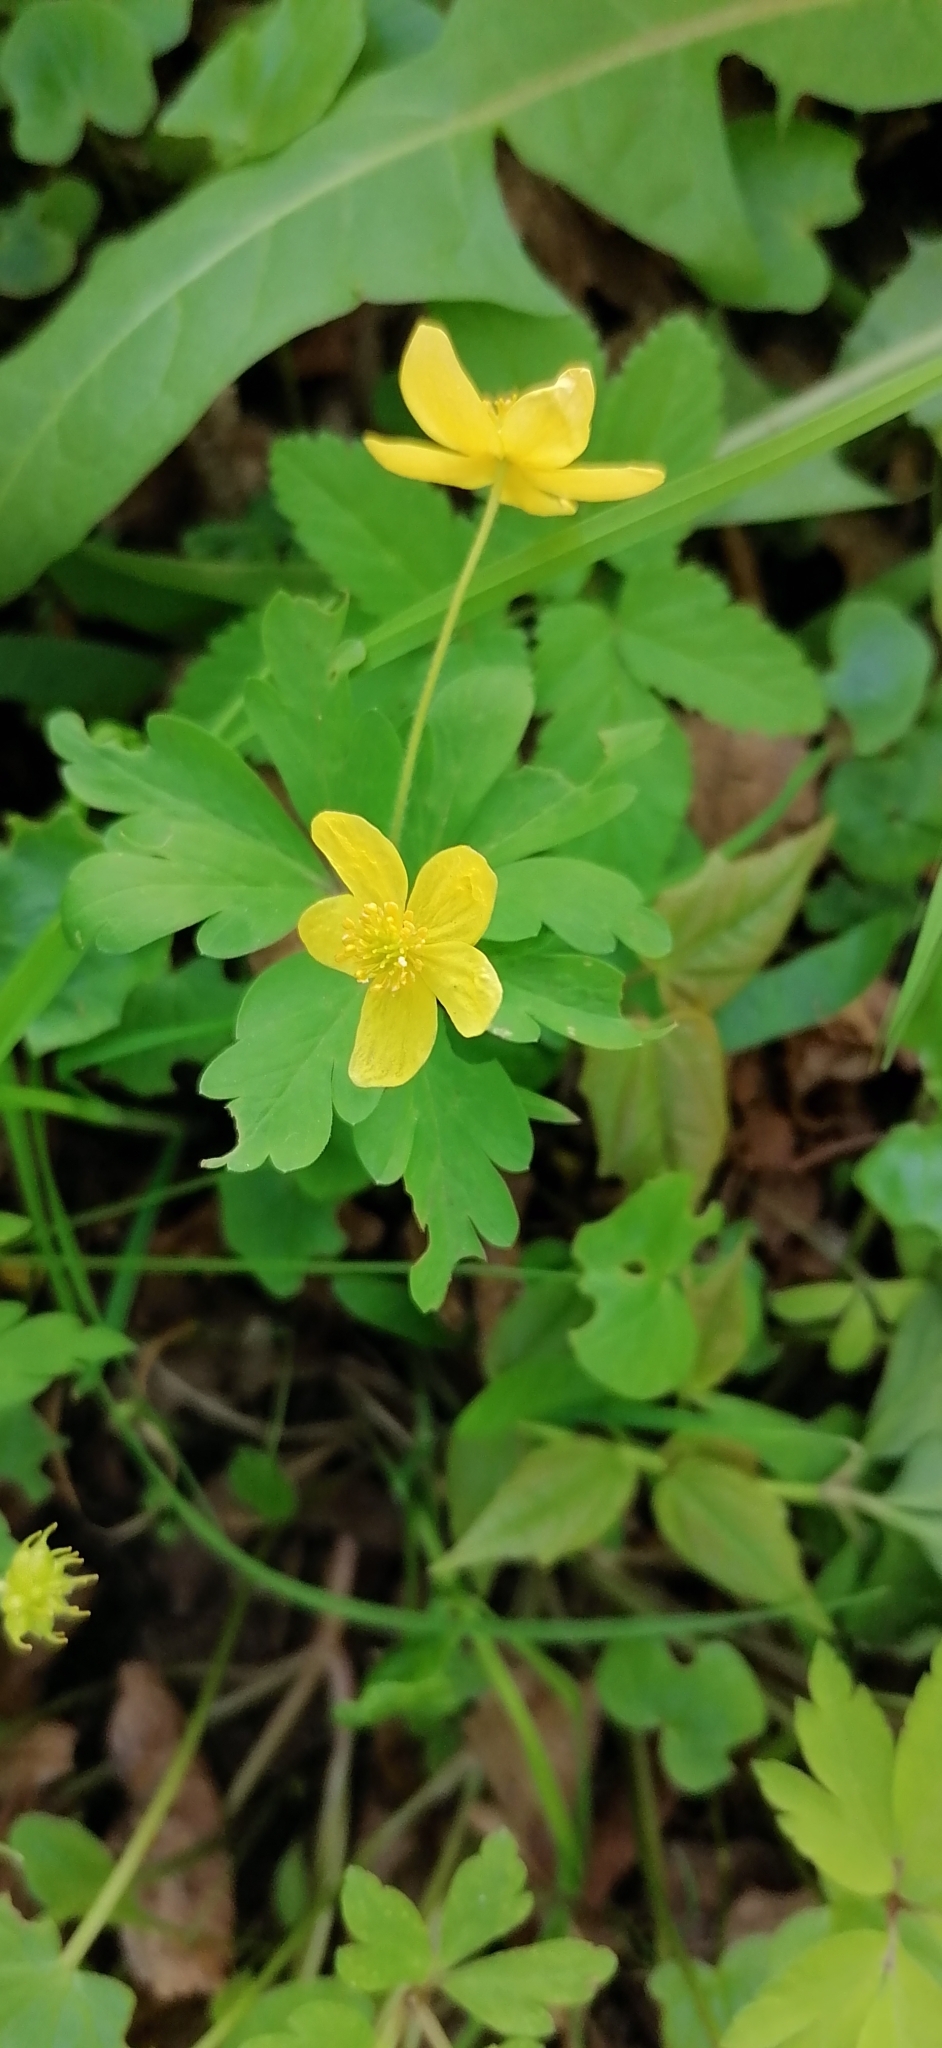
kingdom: Plantae
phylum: Tracheophyta
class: Magnoliopsida
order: Ranunculales
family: Ranunculaceae
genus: Anemone
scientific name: Anemone ranunculoides
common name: Yellow anemone
